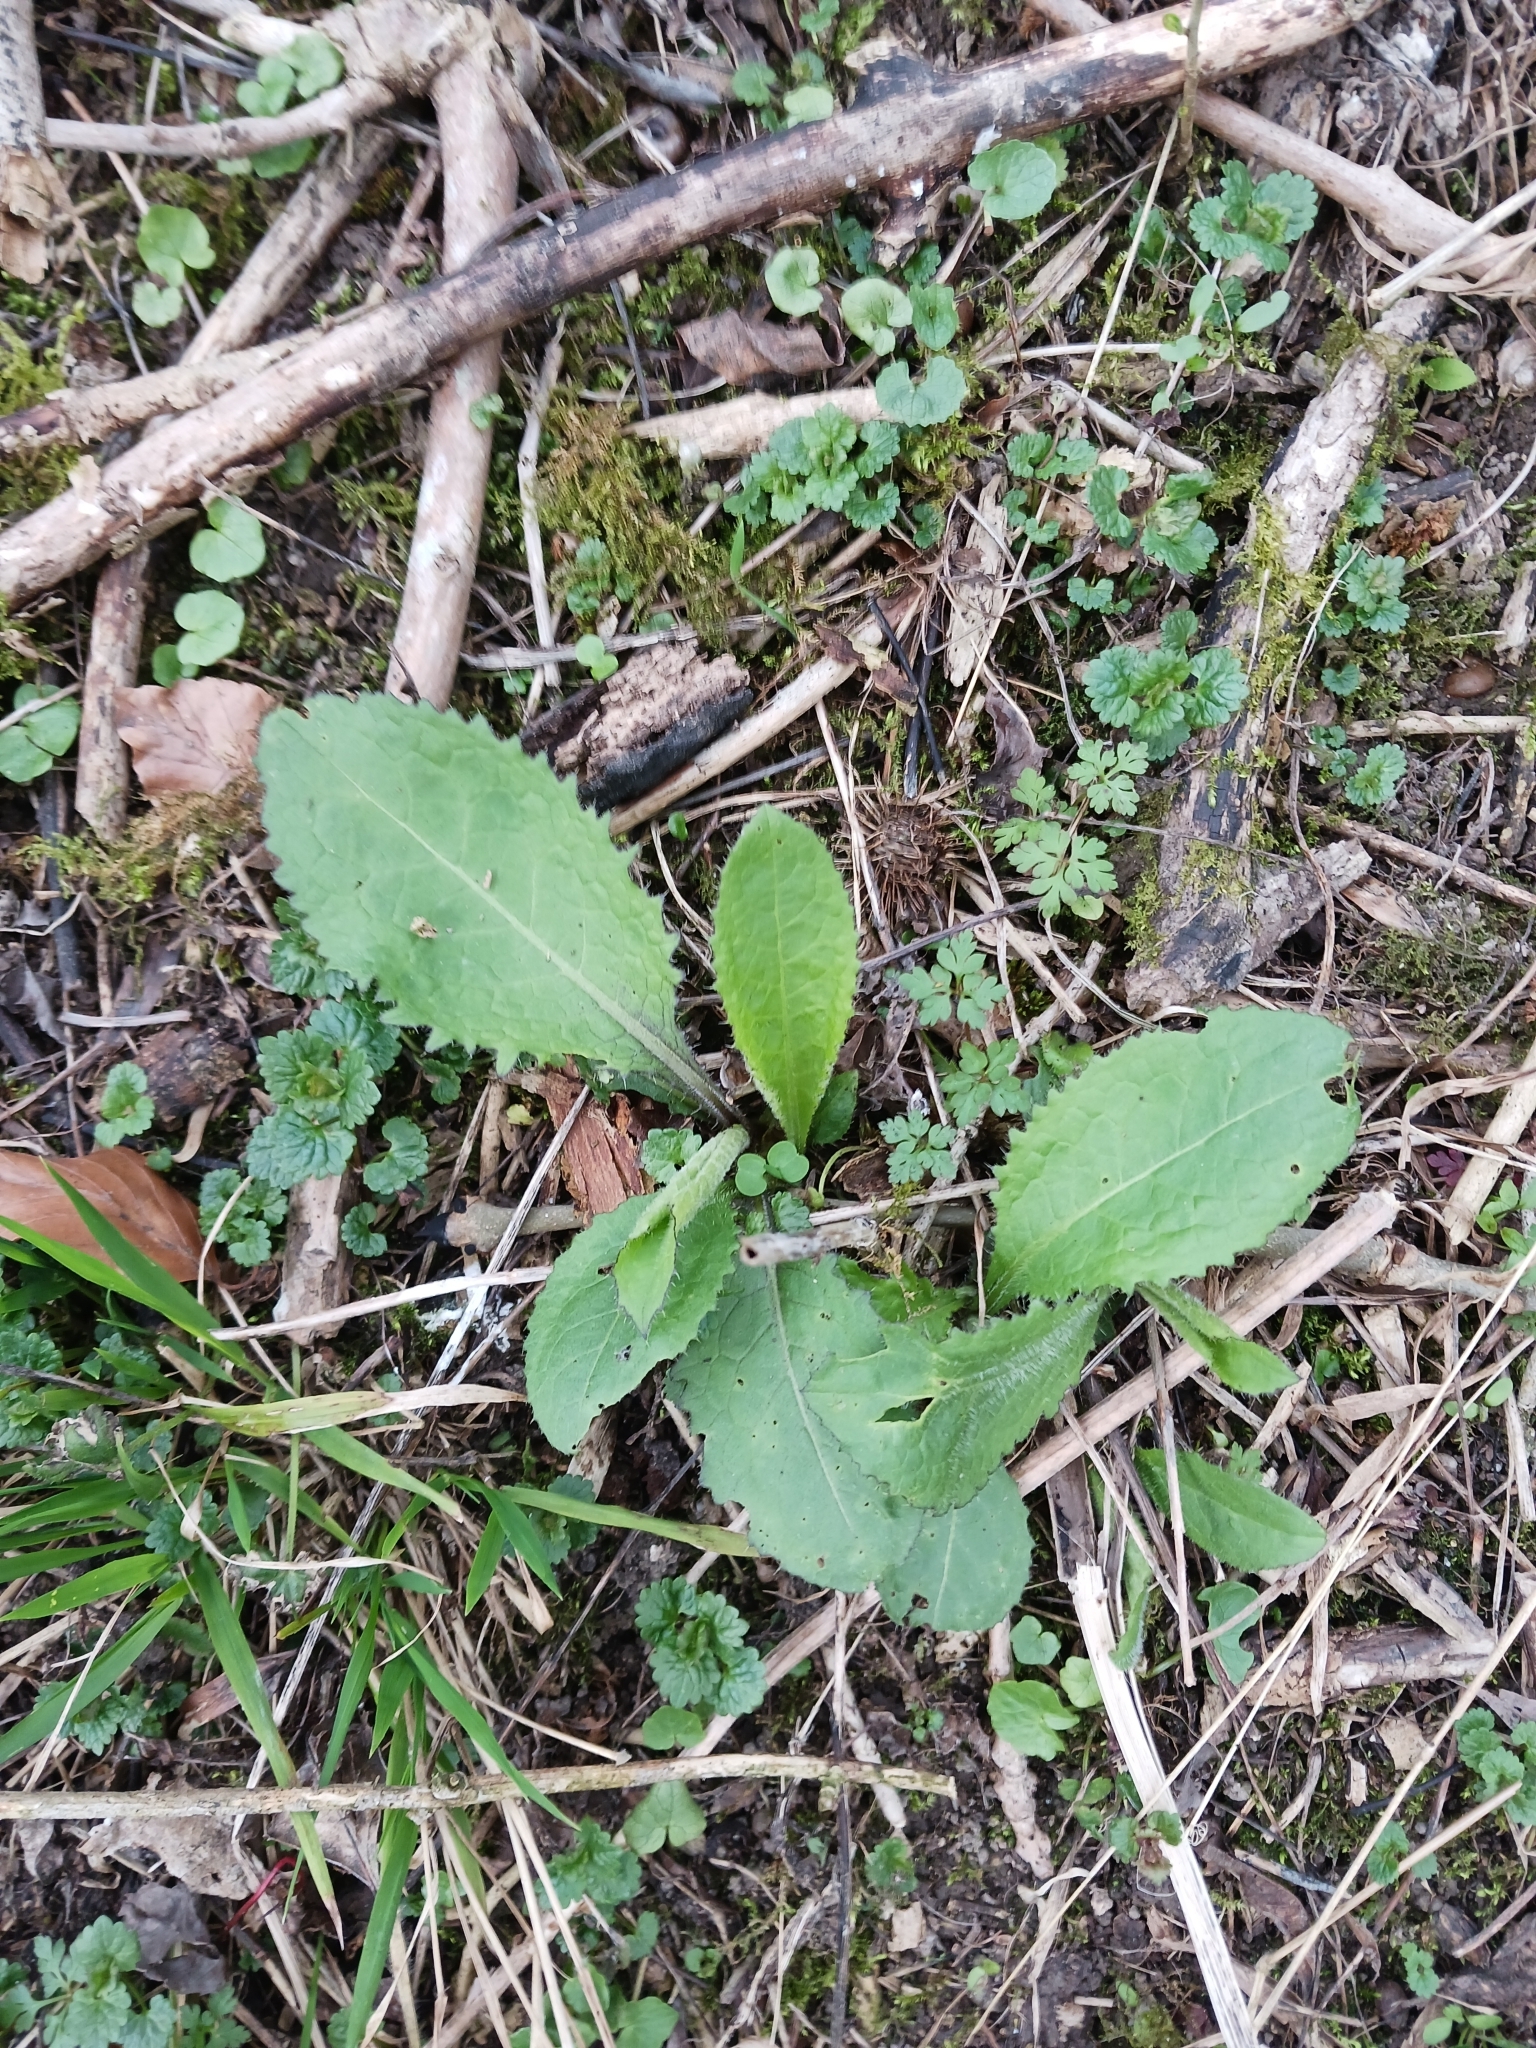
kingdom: Plantae
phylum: Tracheophyta
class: Magnoliopsida
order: Asterales
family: Asteraceae
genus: Cirsium
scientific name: Cirsium oleraceum
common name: Cabbage thistle
